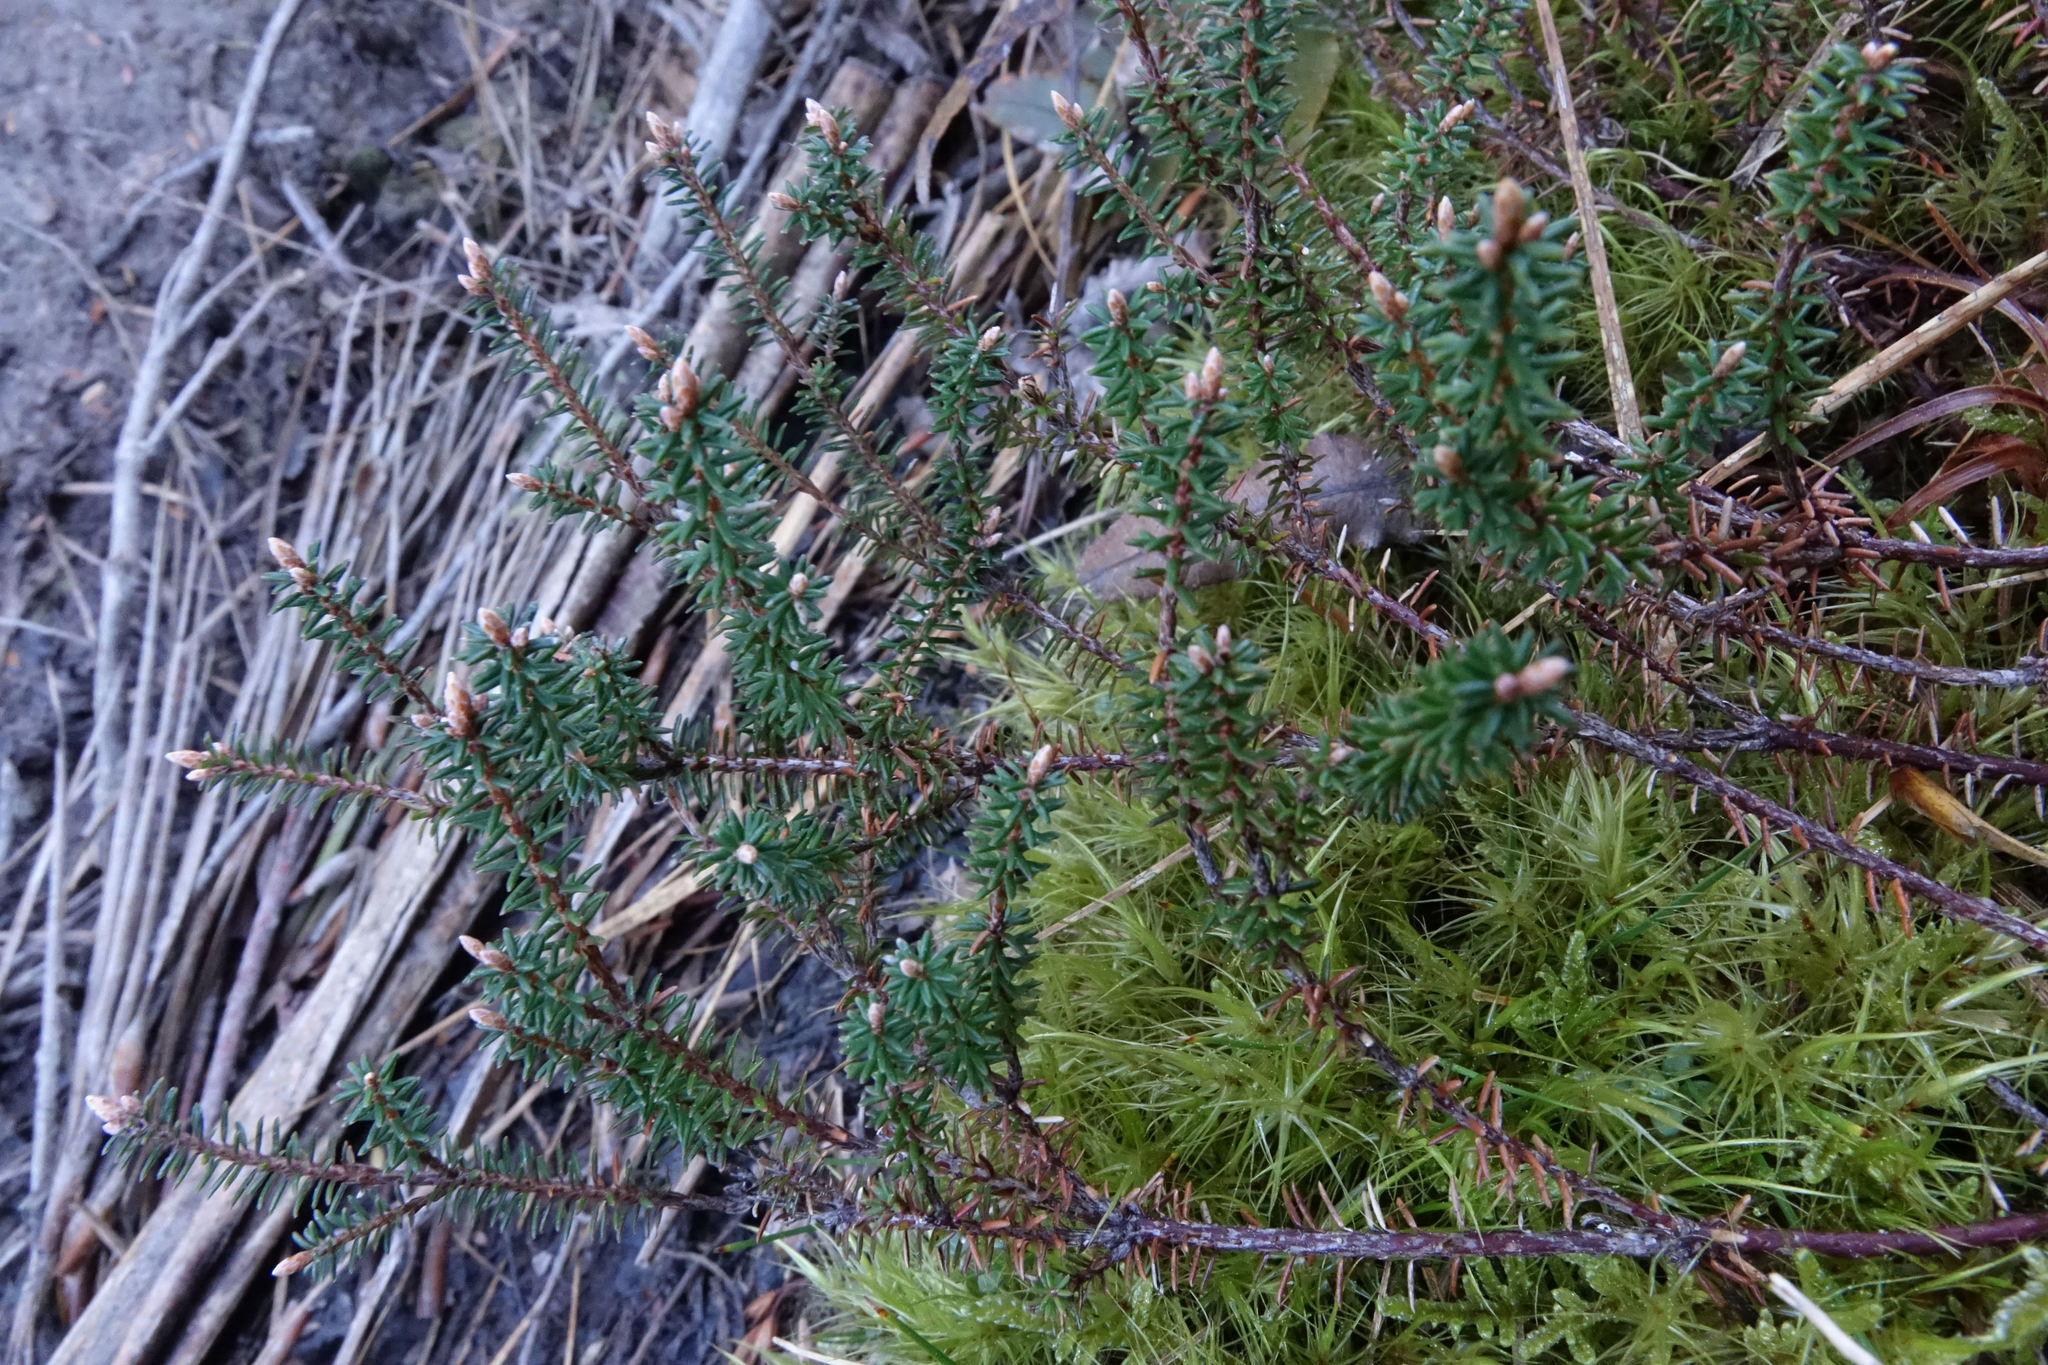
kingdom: Plantae
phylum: Tracheophyta
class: Magnoliopsida
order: Ericales
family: Ericaceae
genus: Androstoma
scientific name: Androstoma empetrifolia
